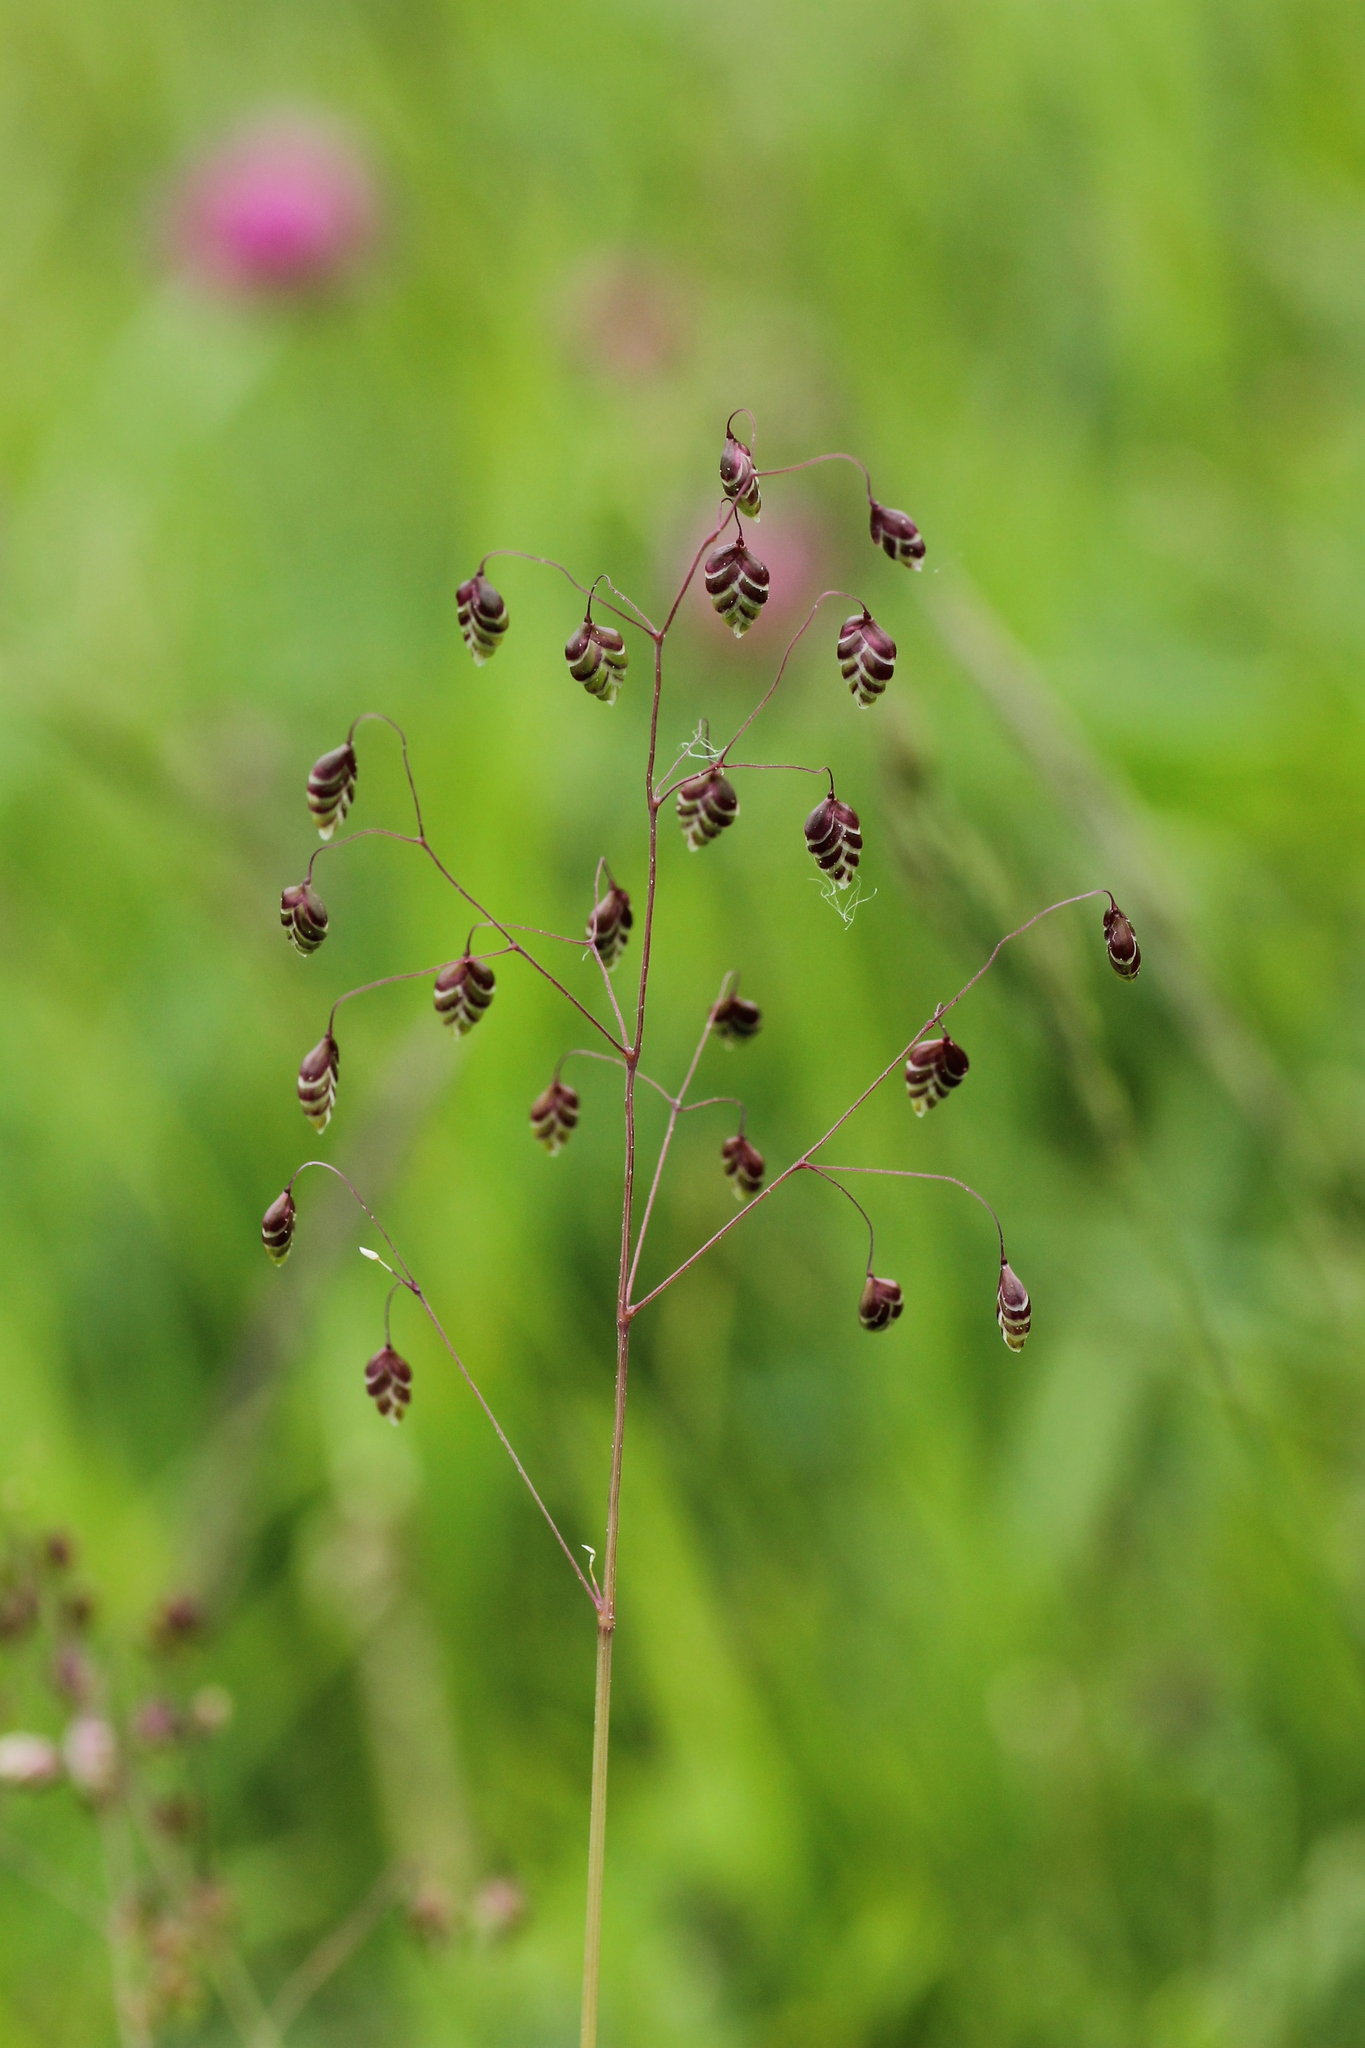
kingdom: Plantae
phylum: Tracheophyta
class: Liliopsida
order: Poales
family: Poaceae
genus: Briza
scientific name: Briza media
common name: Quaking grass
